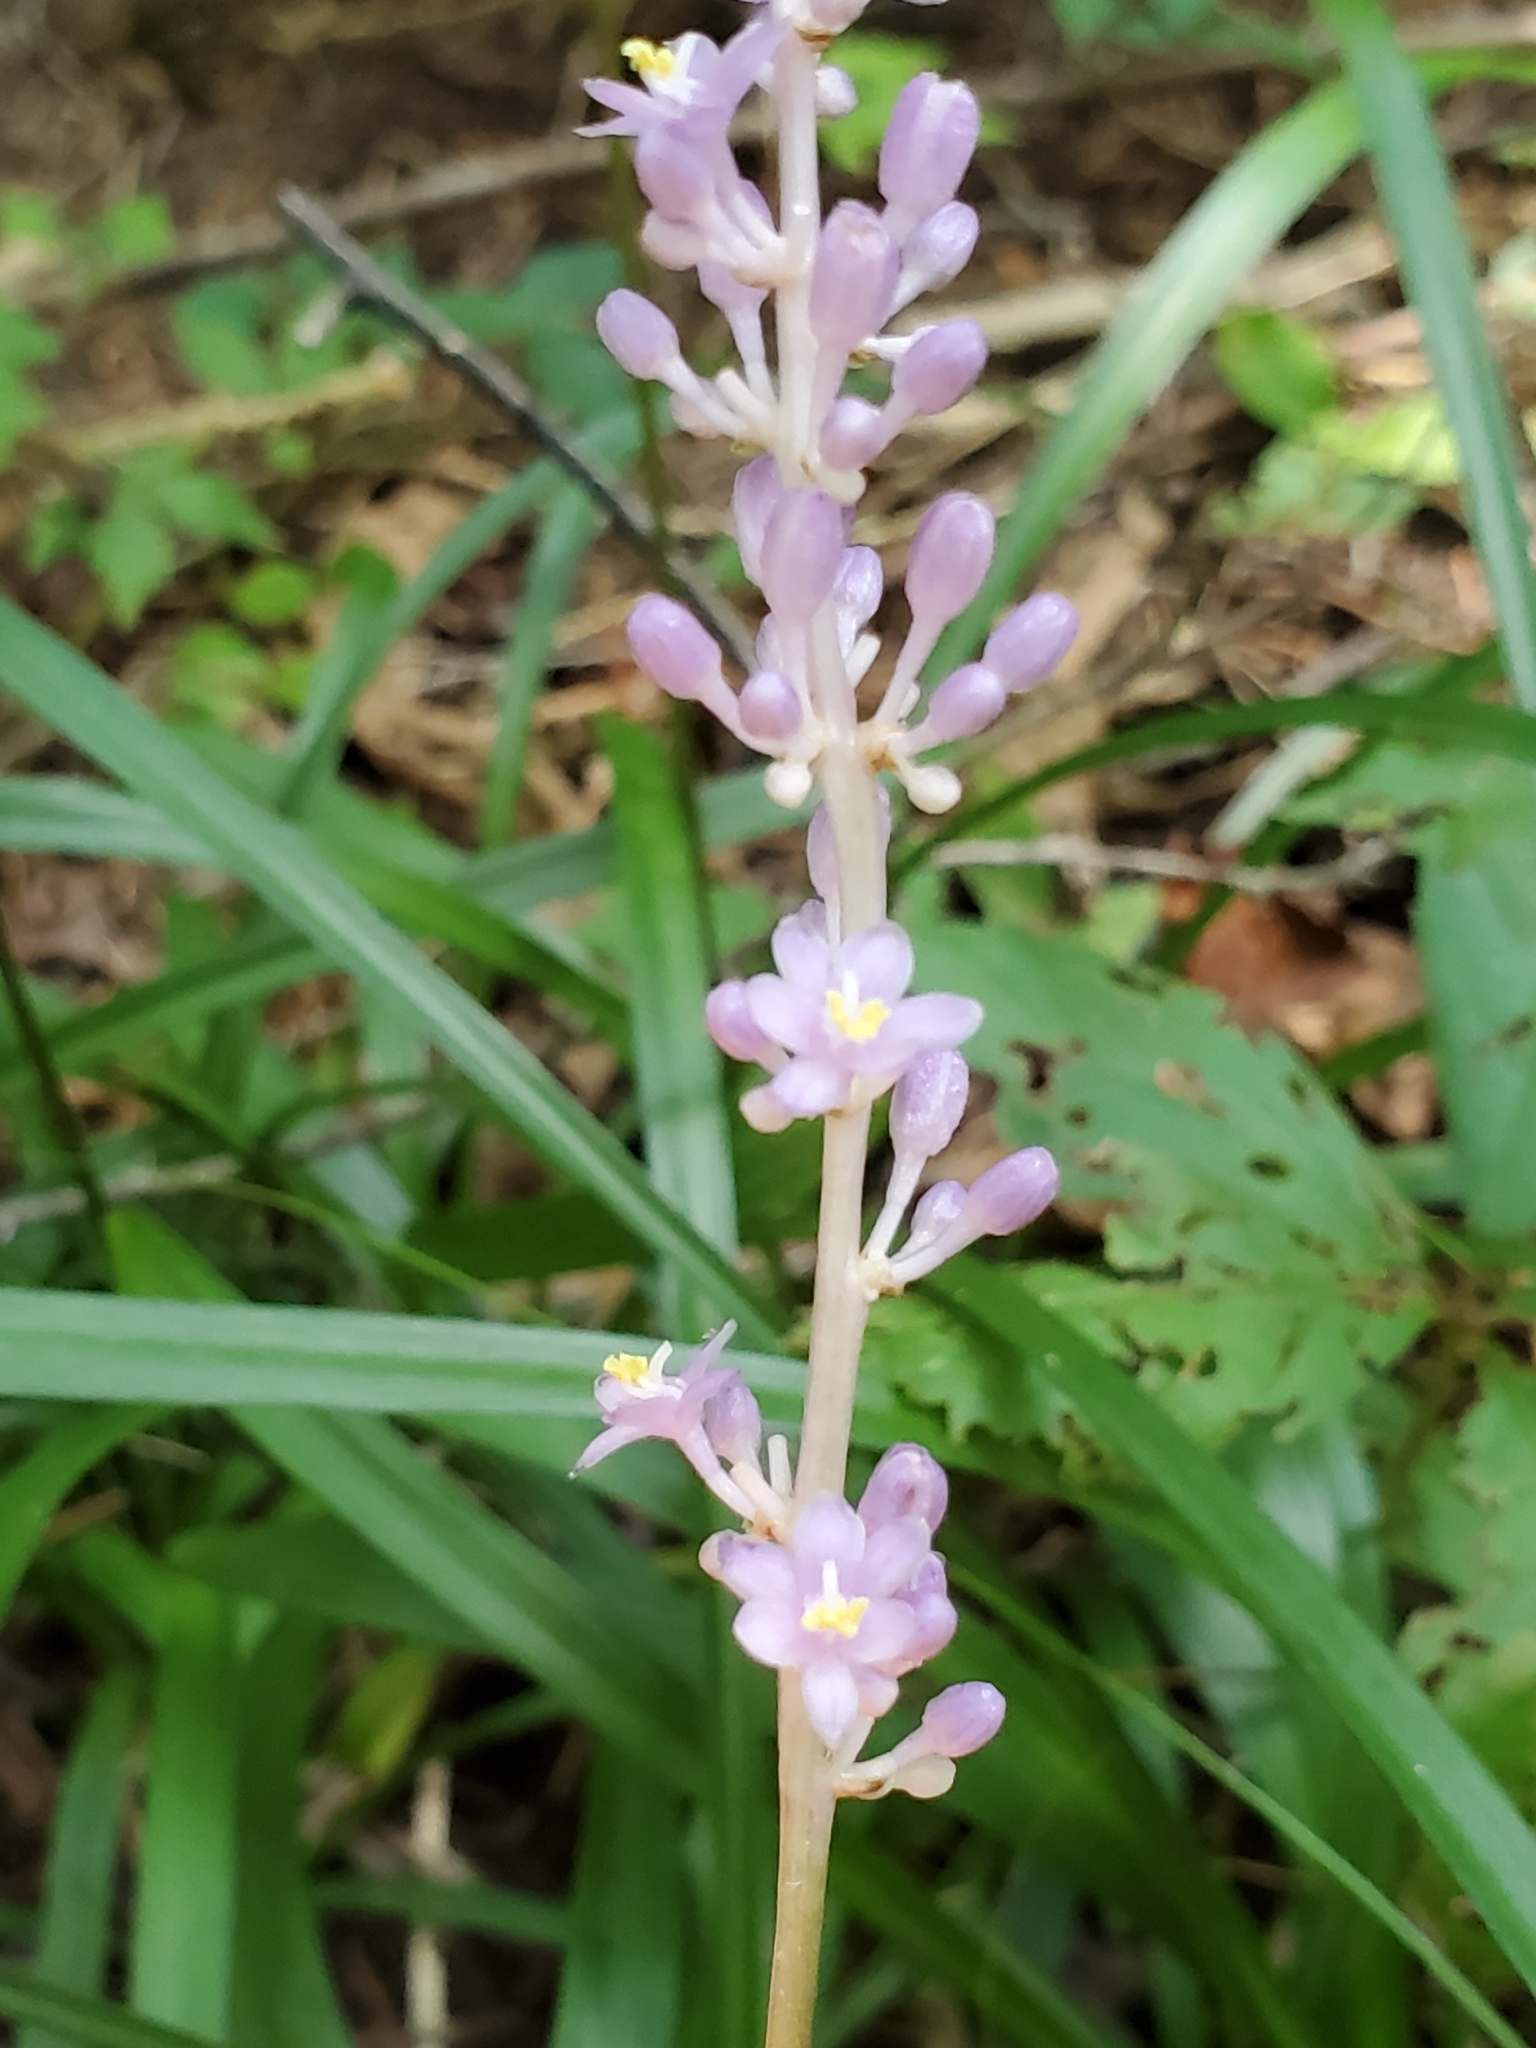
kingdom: Plantae
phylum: Tracheophyta
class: Liliopsida
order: Asparagales
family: Asparagaceae
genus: Liriope
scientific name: Liriope muscari
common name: Big blue lilyturf
